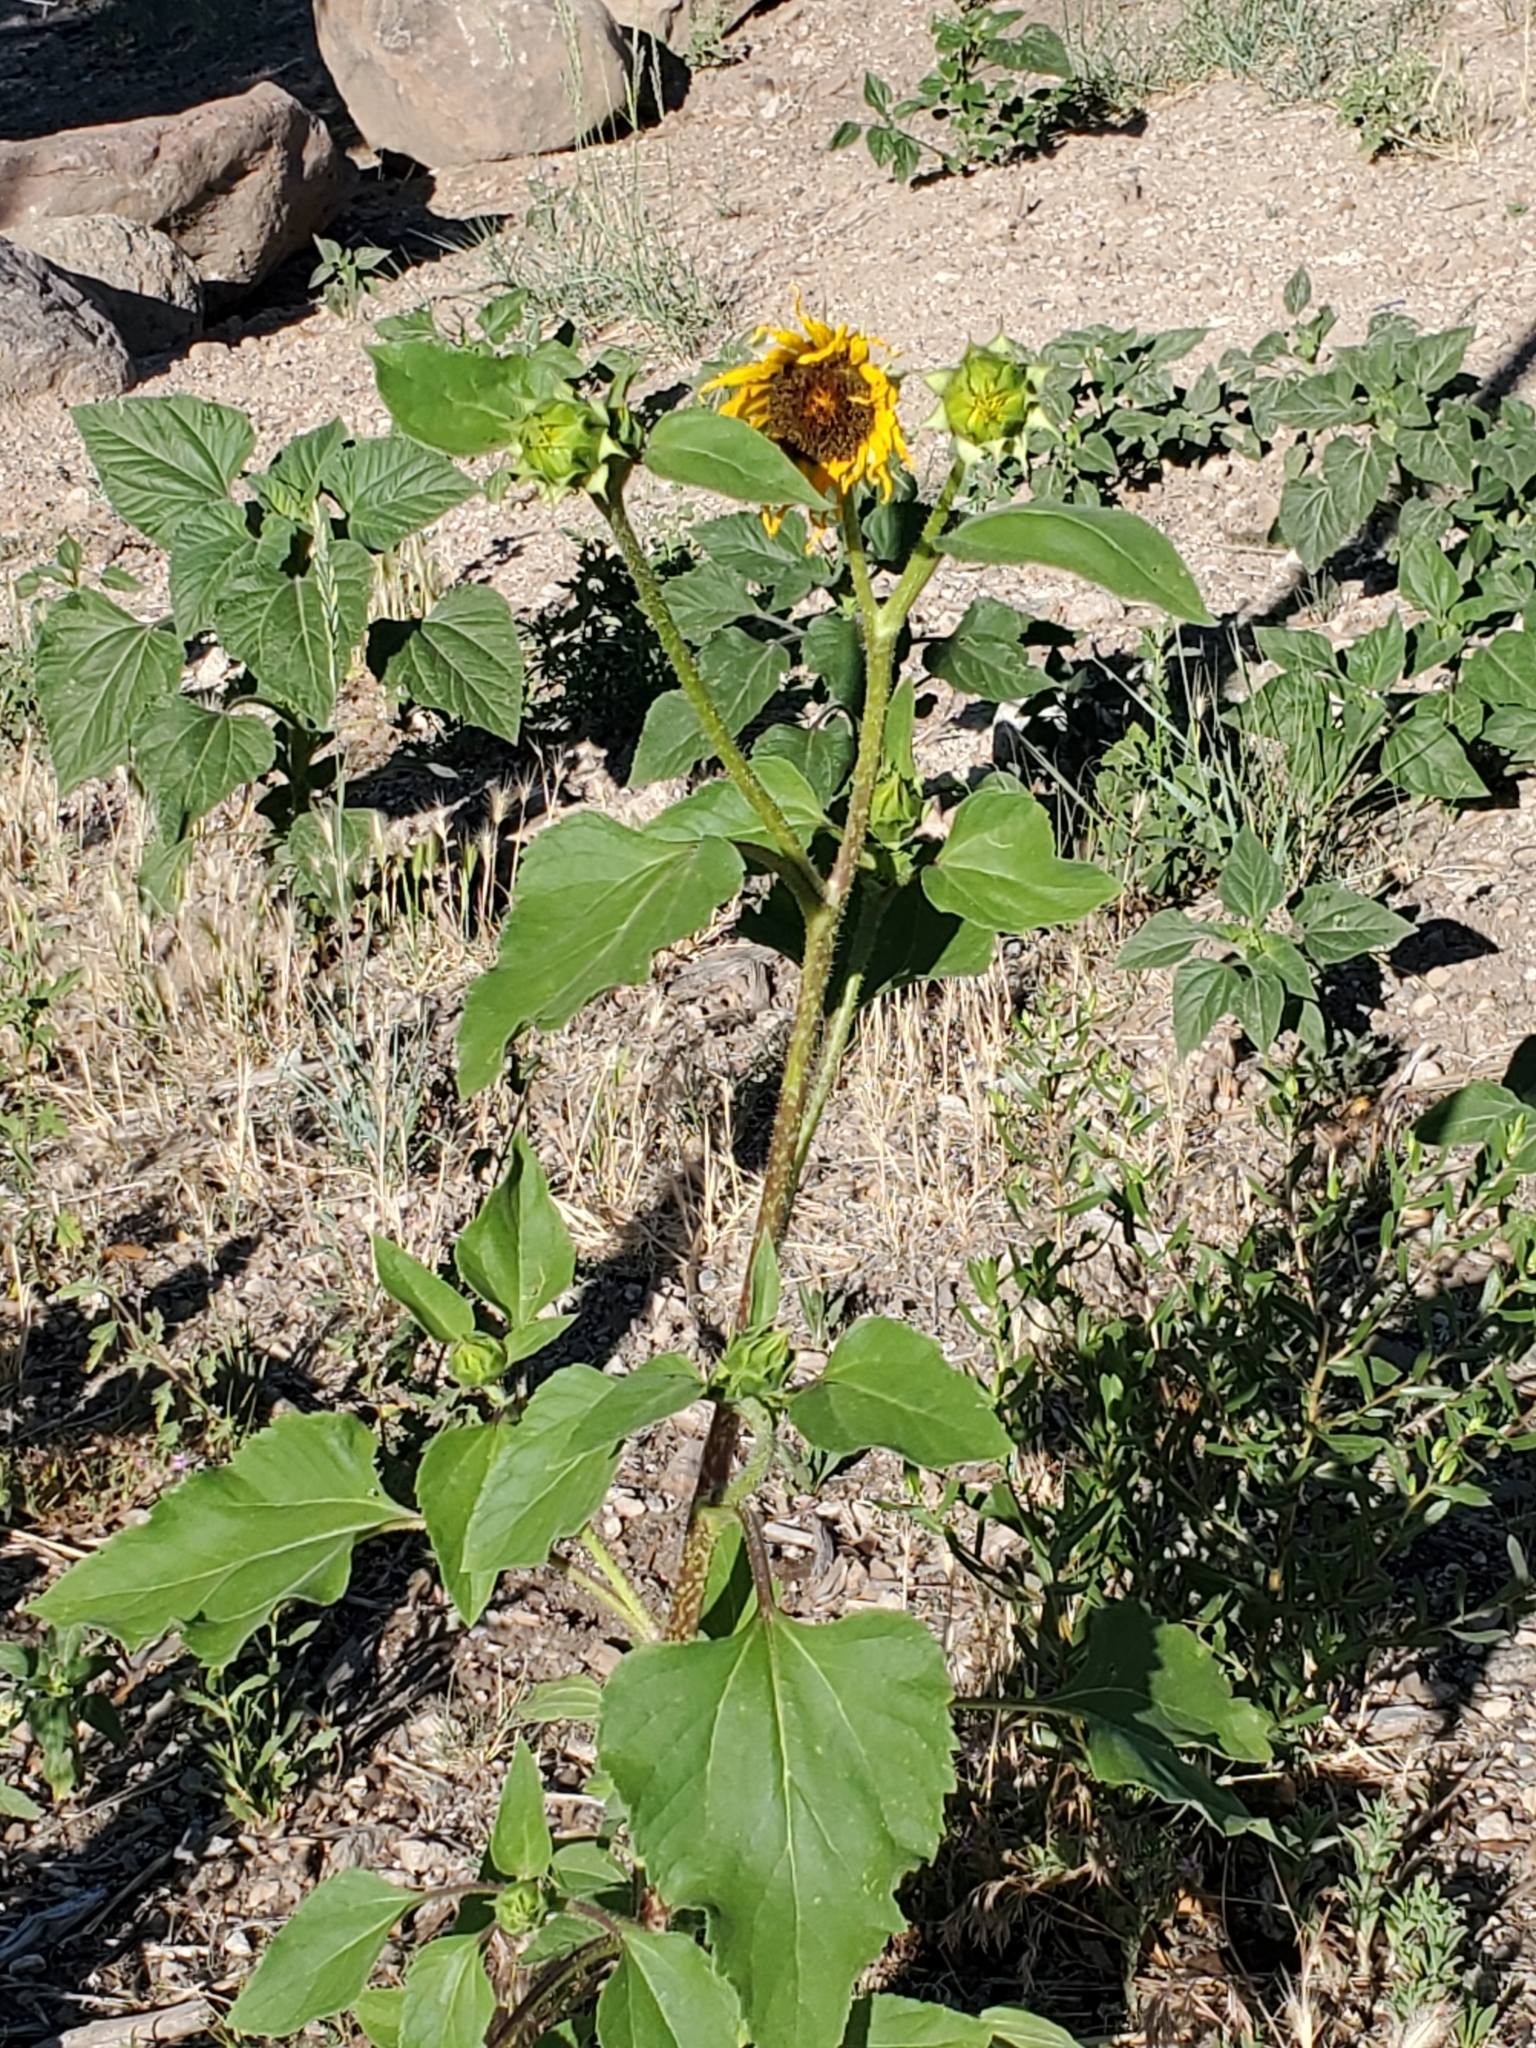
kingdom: Plantae
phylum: Tracheophyta
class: Magnoliopsida
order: Asterales
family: Asteraceae
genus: Helianthus
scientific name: Helianthus annuus
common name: Sunflower
